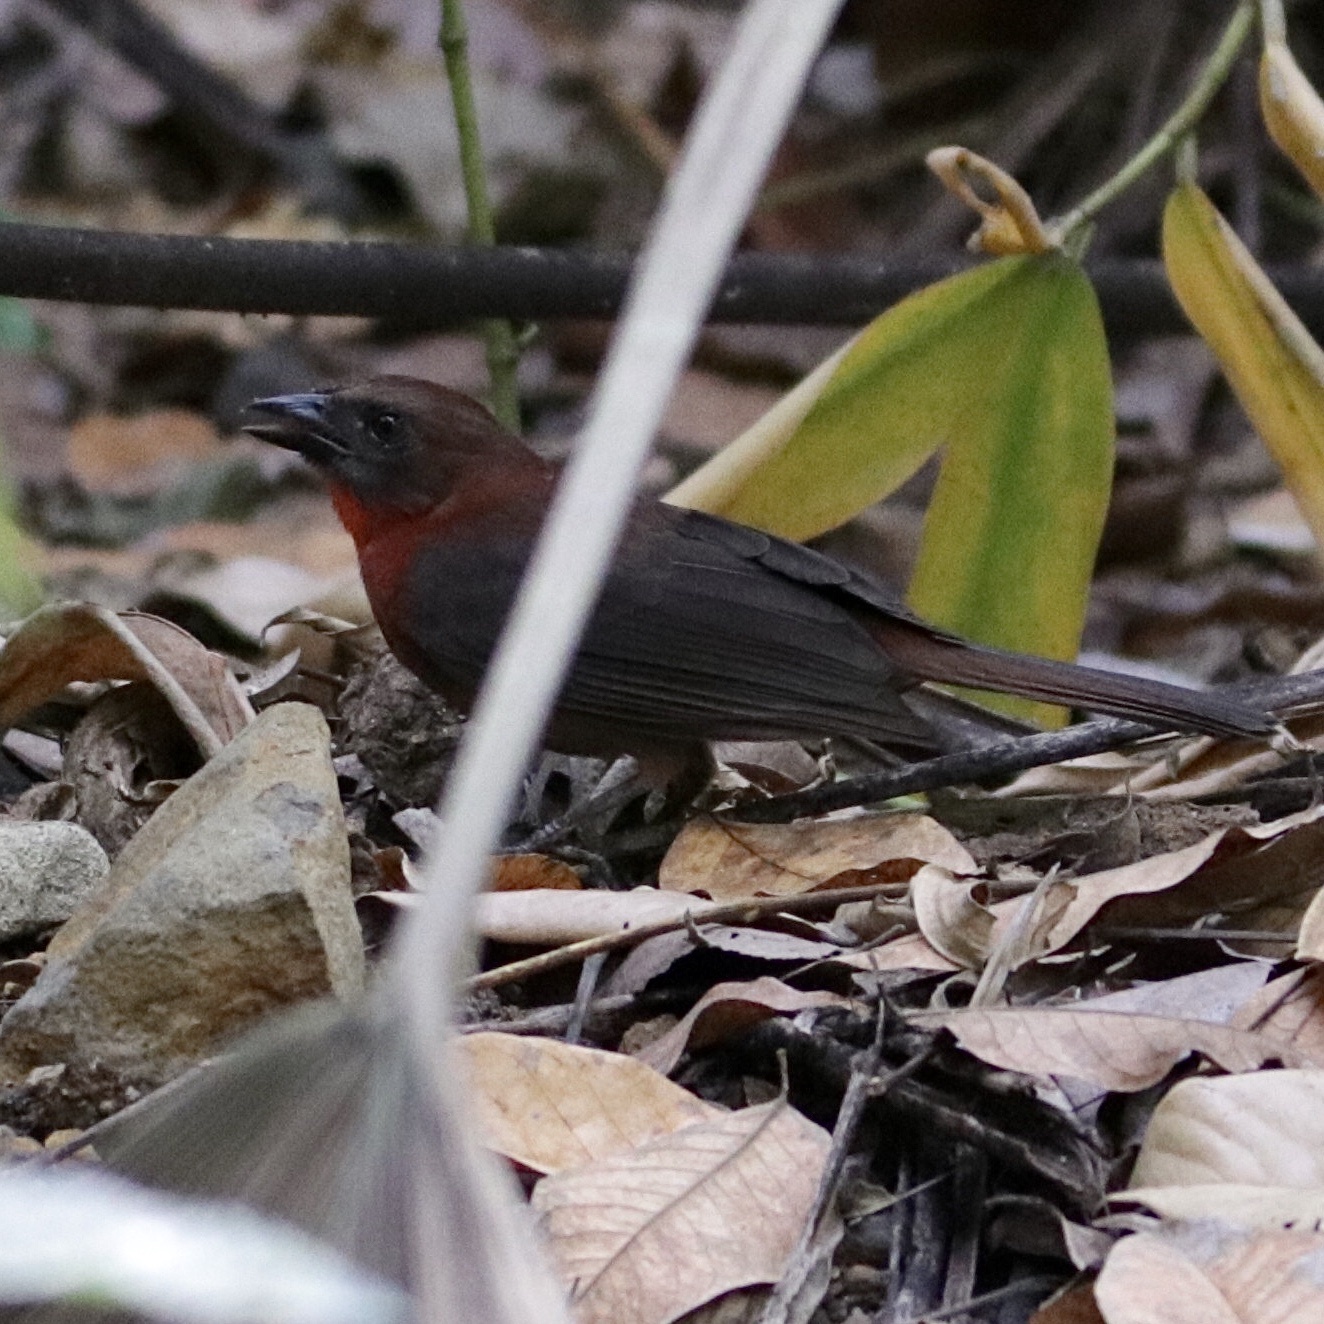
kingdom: Animalia
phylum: Chordata
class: Aves
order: Passeriformes
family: Cardinalidae
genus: Habia
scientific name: Habia fuscicauda
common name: Red-throated ant-tanager
